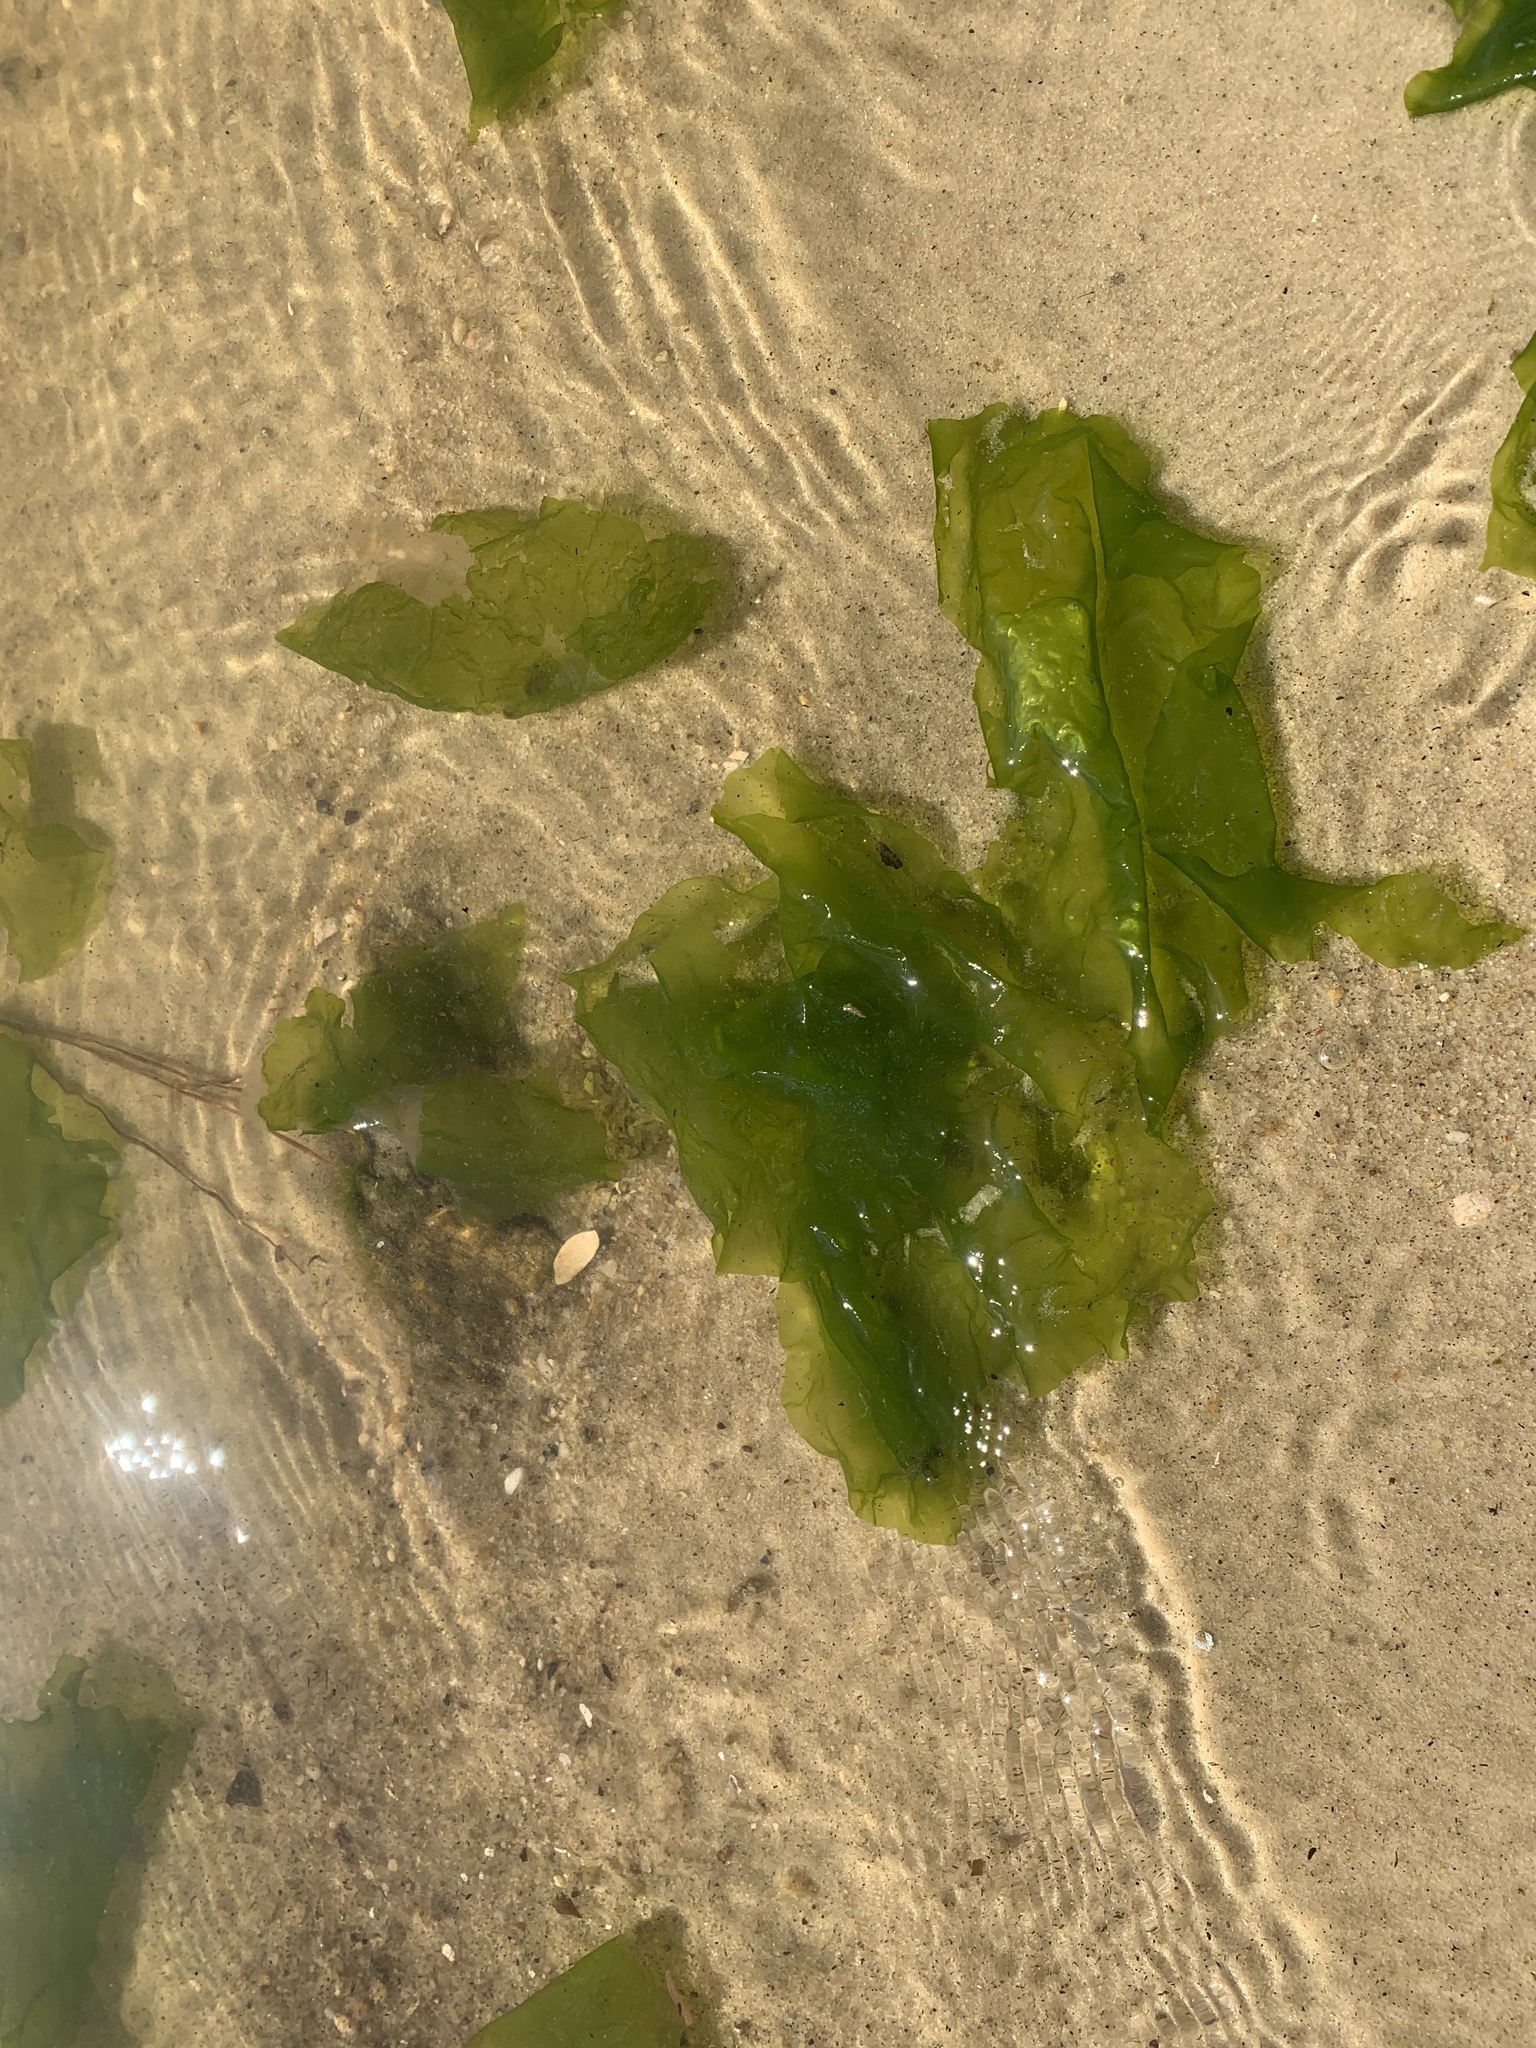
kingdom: Plantae
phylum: Chlorophyta
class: Ulvophyceae
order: Ulvales
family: Ulvaceae
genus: Ulva
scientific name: Ulva lactuca
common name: Sea lettuce
